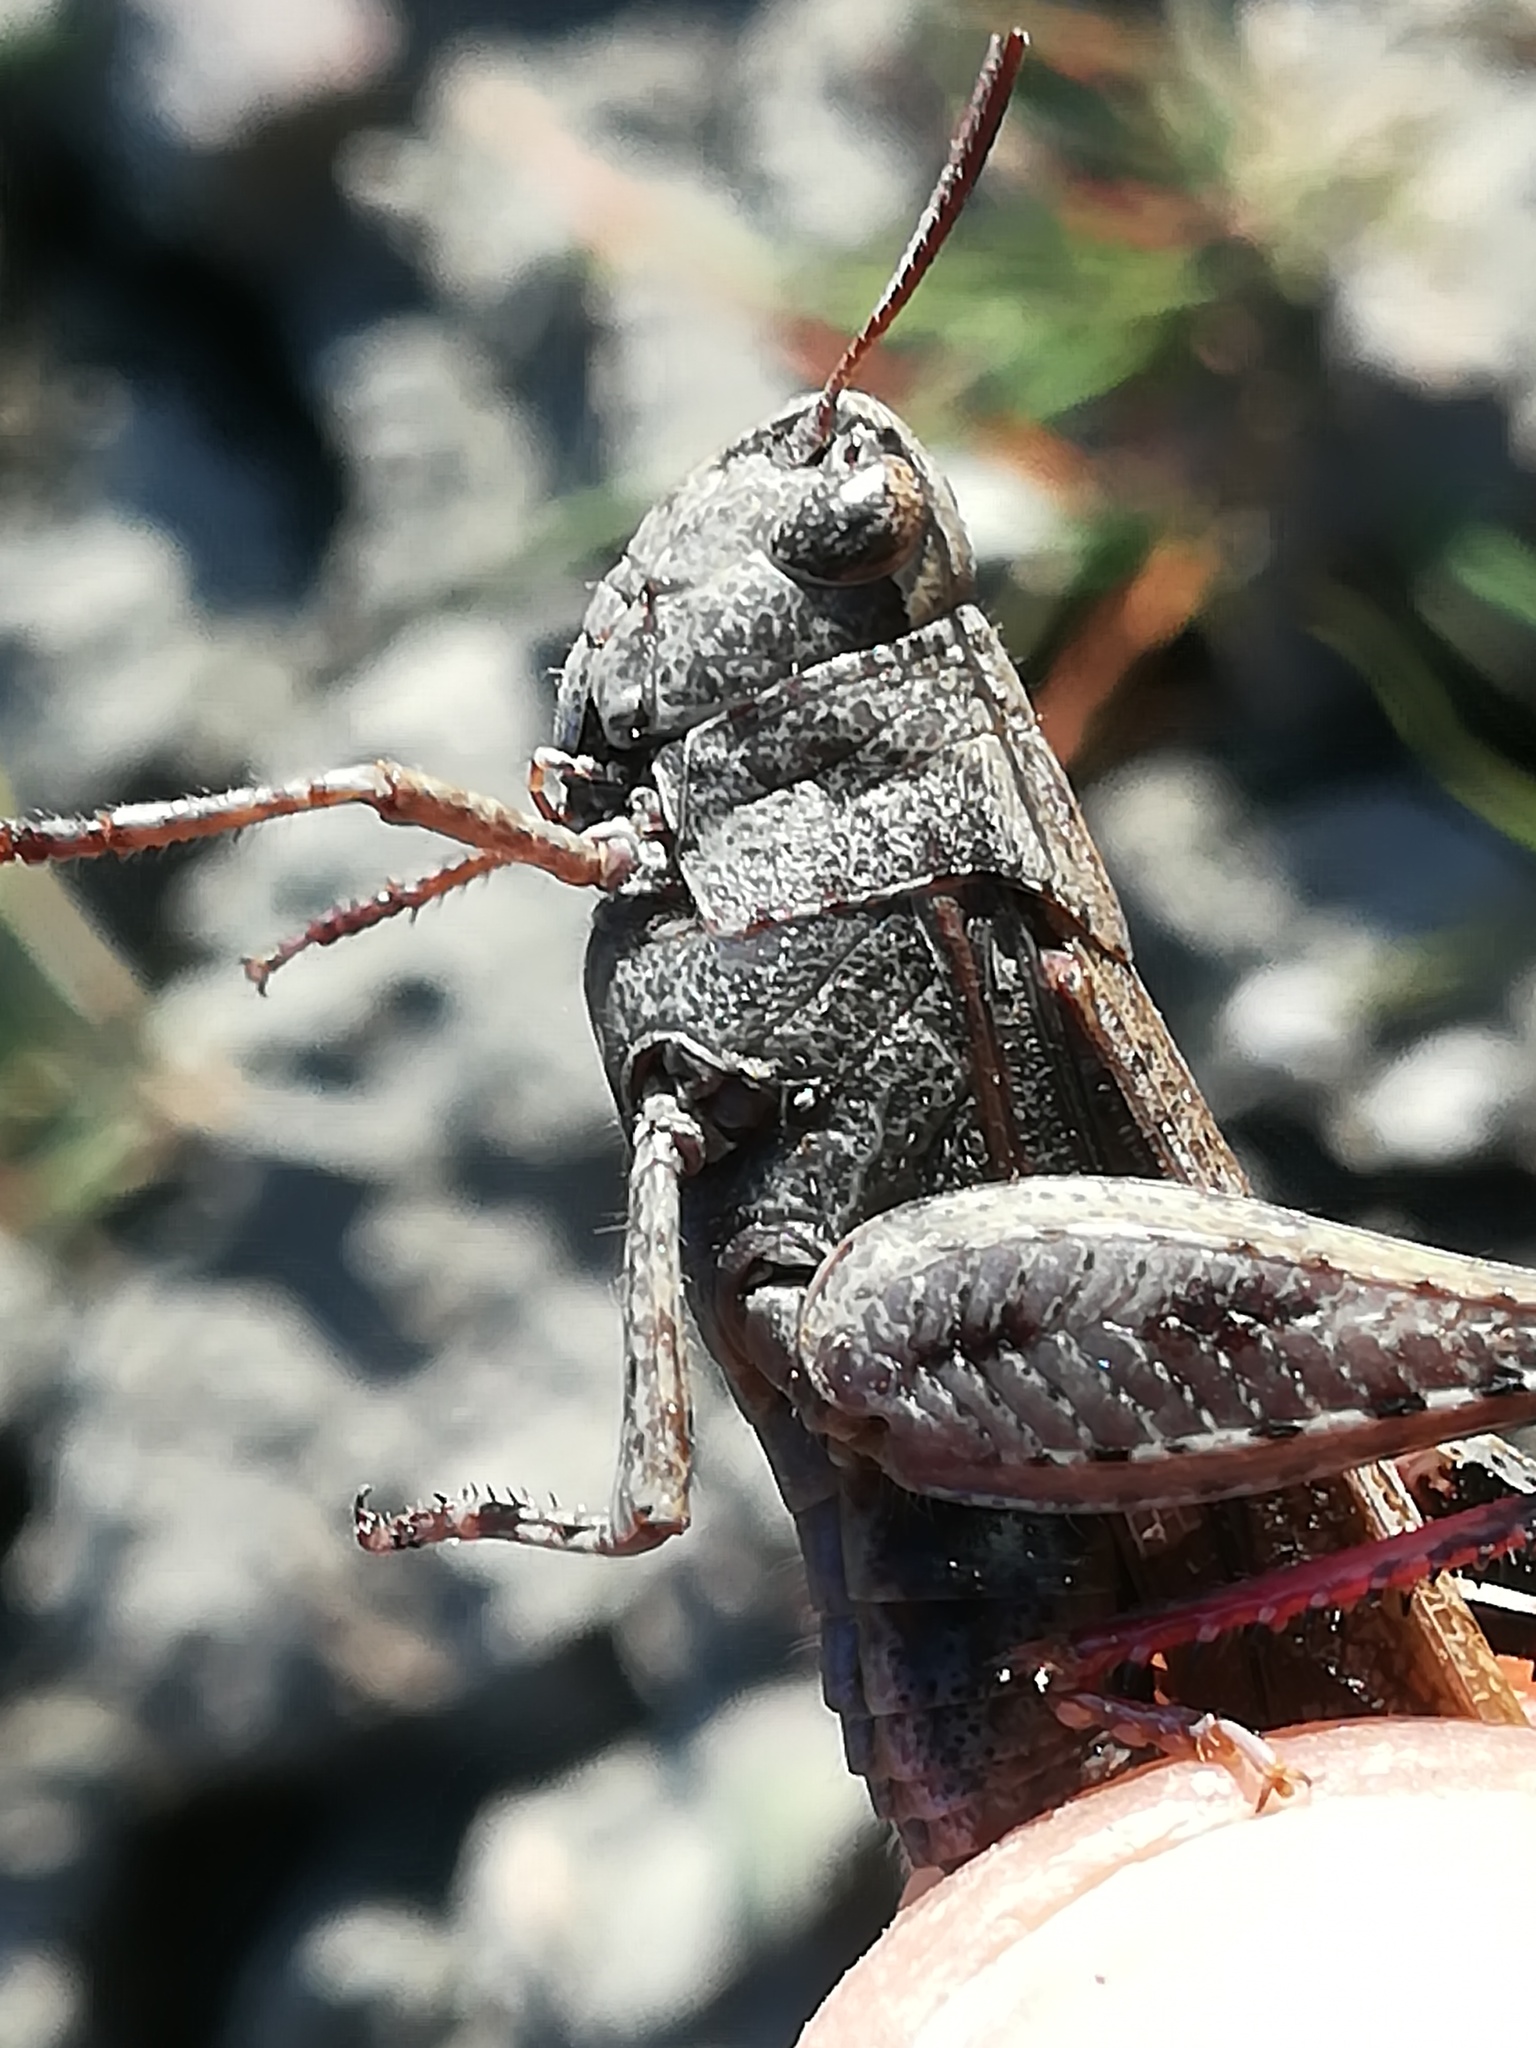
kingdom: Animalia
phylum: Arthropoda
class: Insecta
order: Orthoptera
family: Acrididae
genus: Aiolopus
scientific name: Aiolopus strepens
